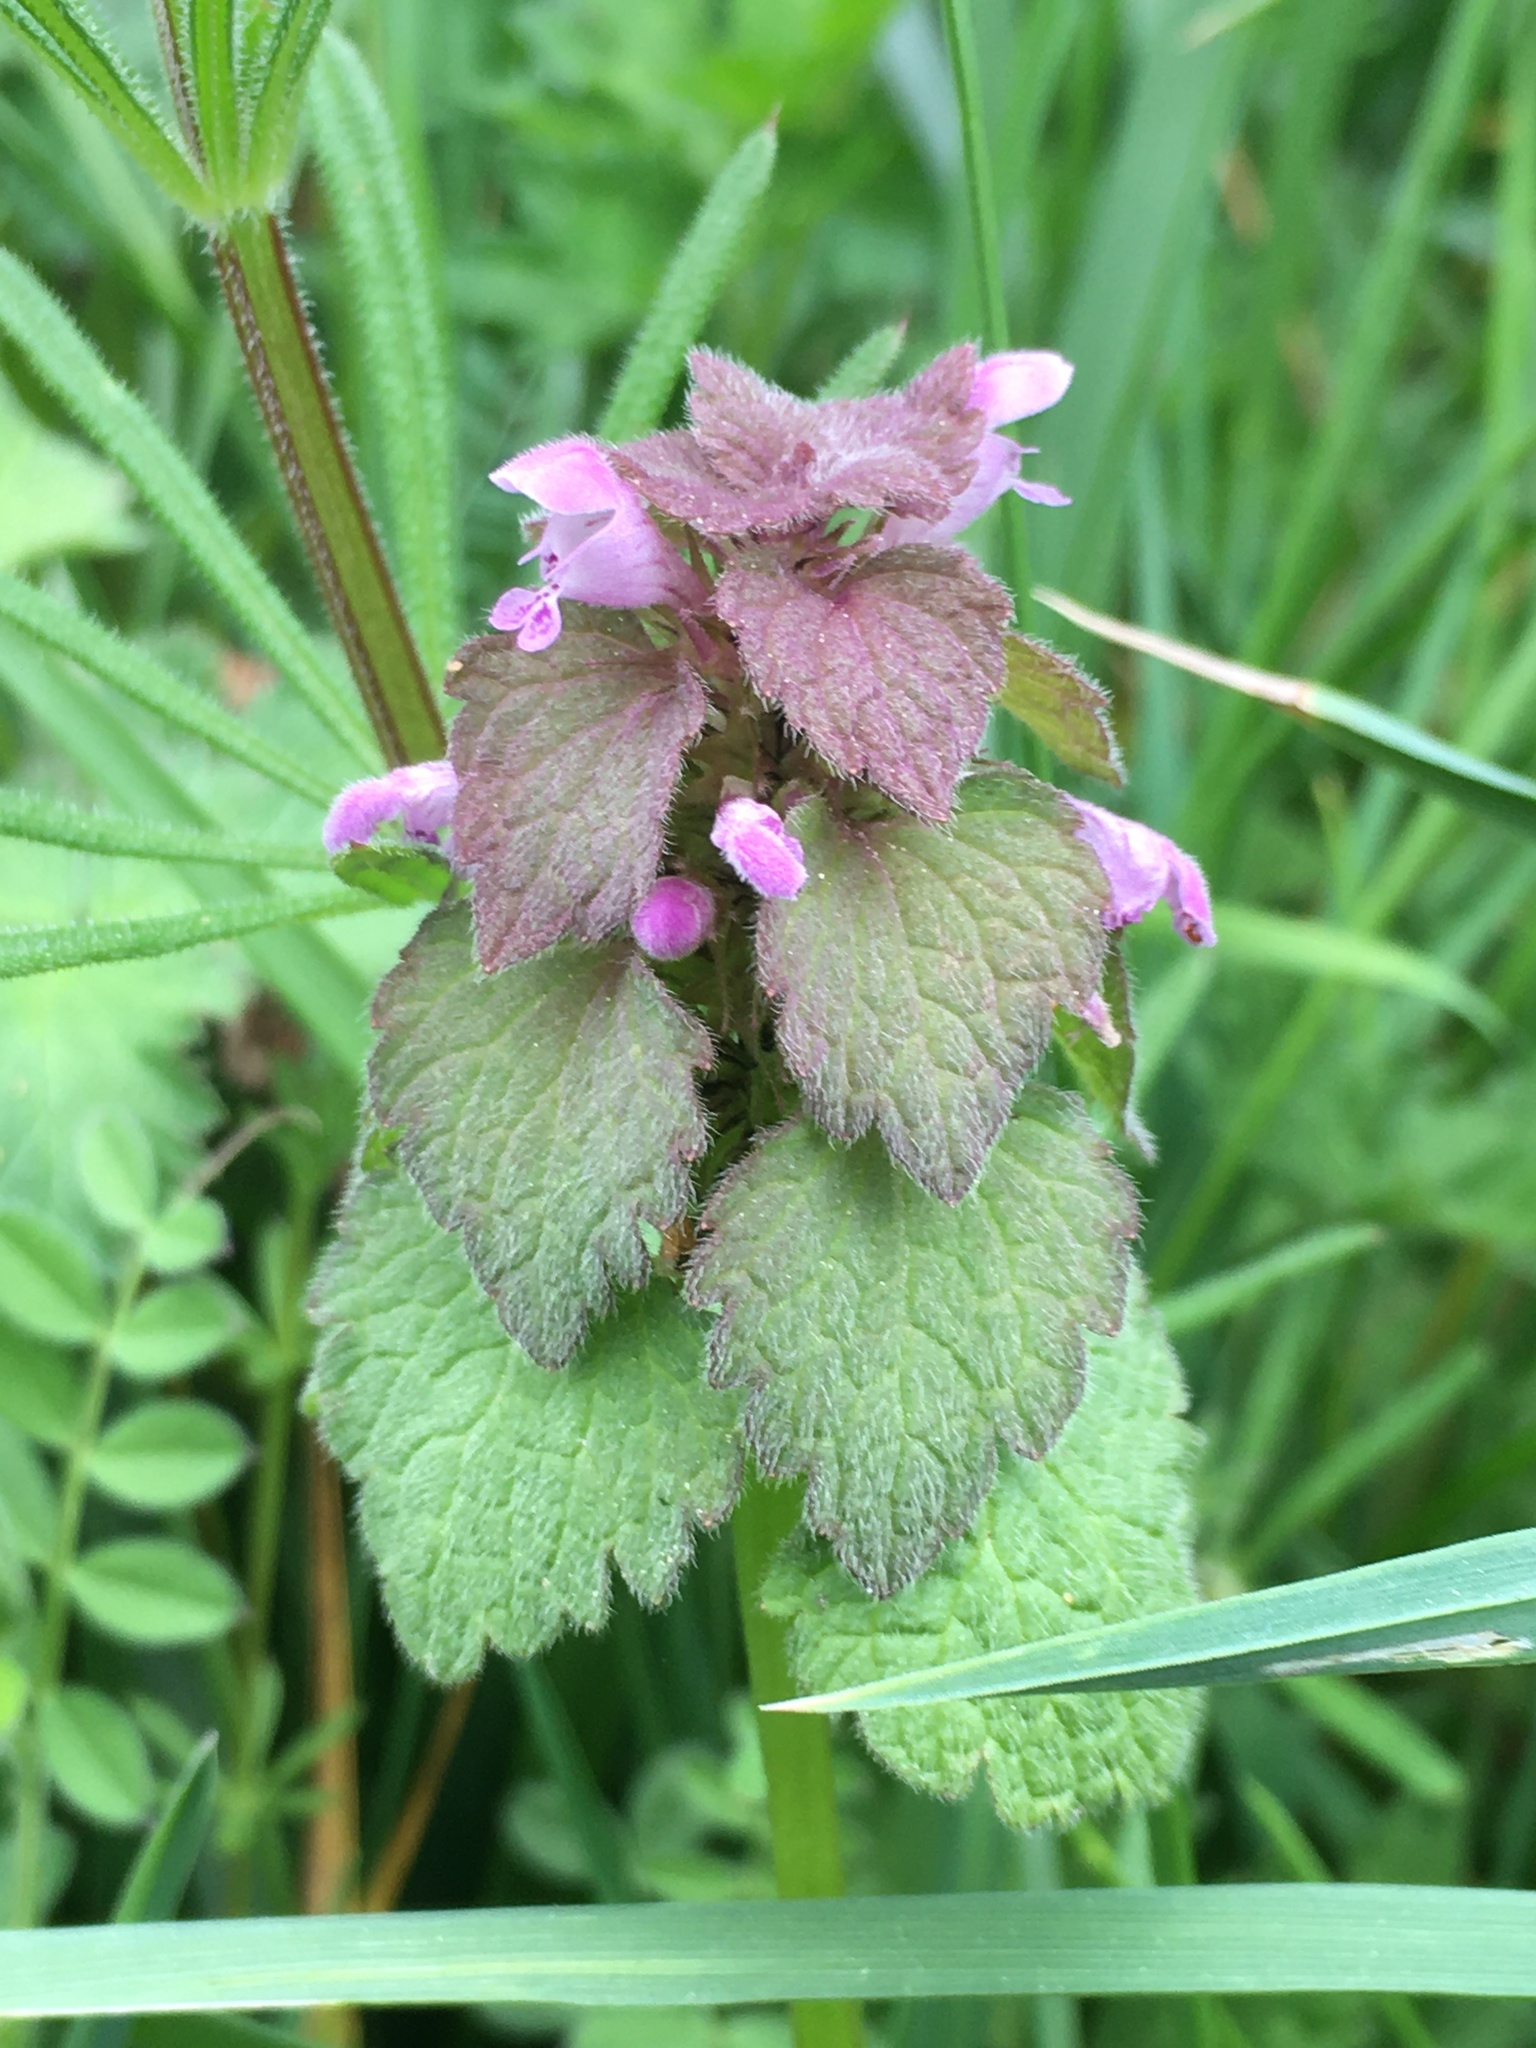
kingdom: Plantae
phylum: Tracheophyta
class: Magnoliopsida
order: Lamiales
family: Lamiaceae
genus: Lamium
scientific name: Lamium purpureum
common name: Red dead-nettle
